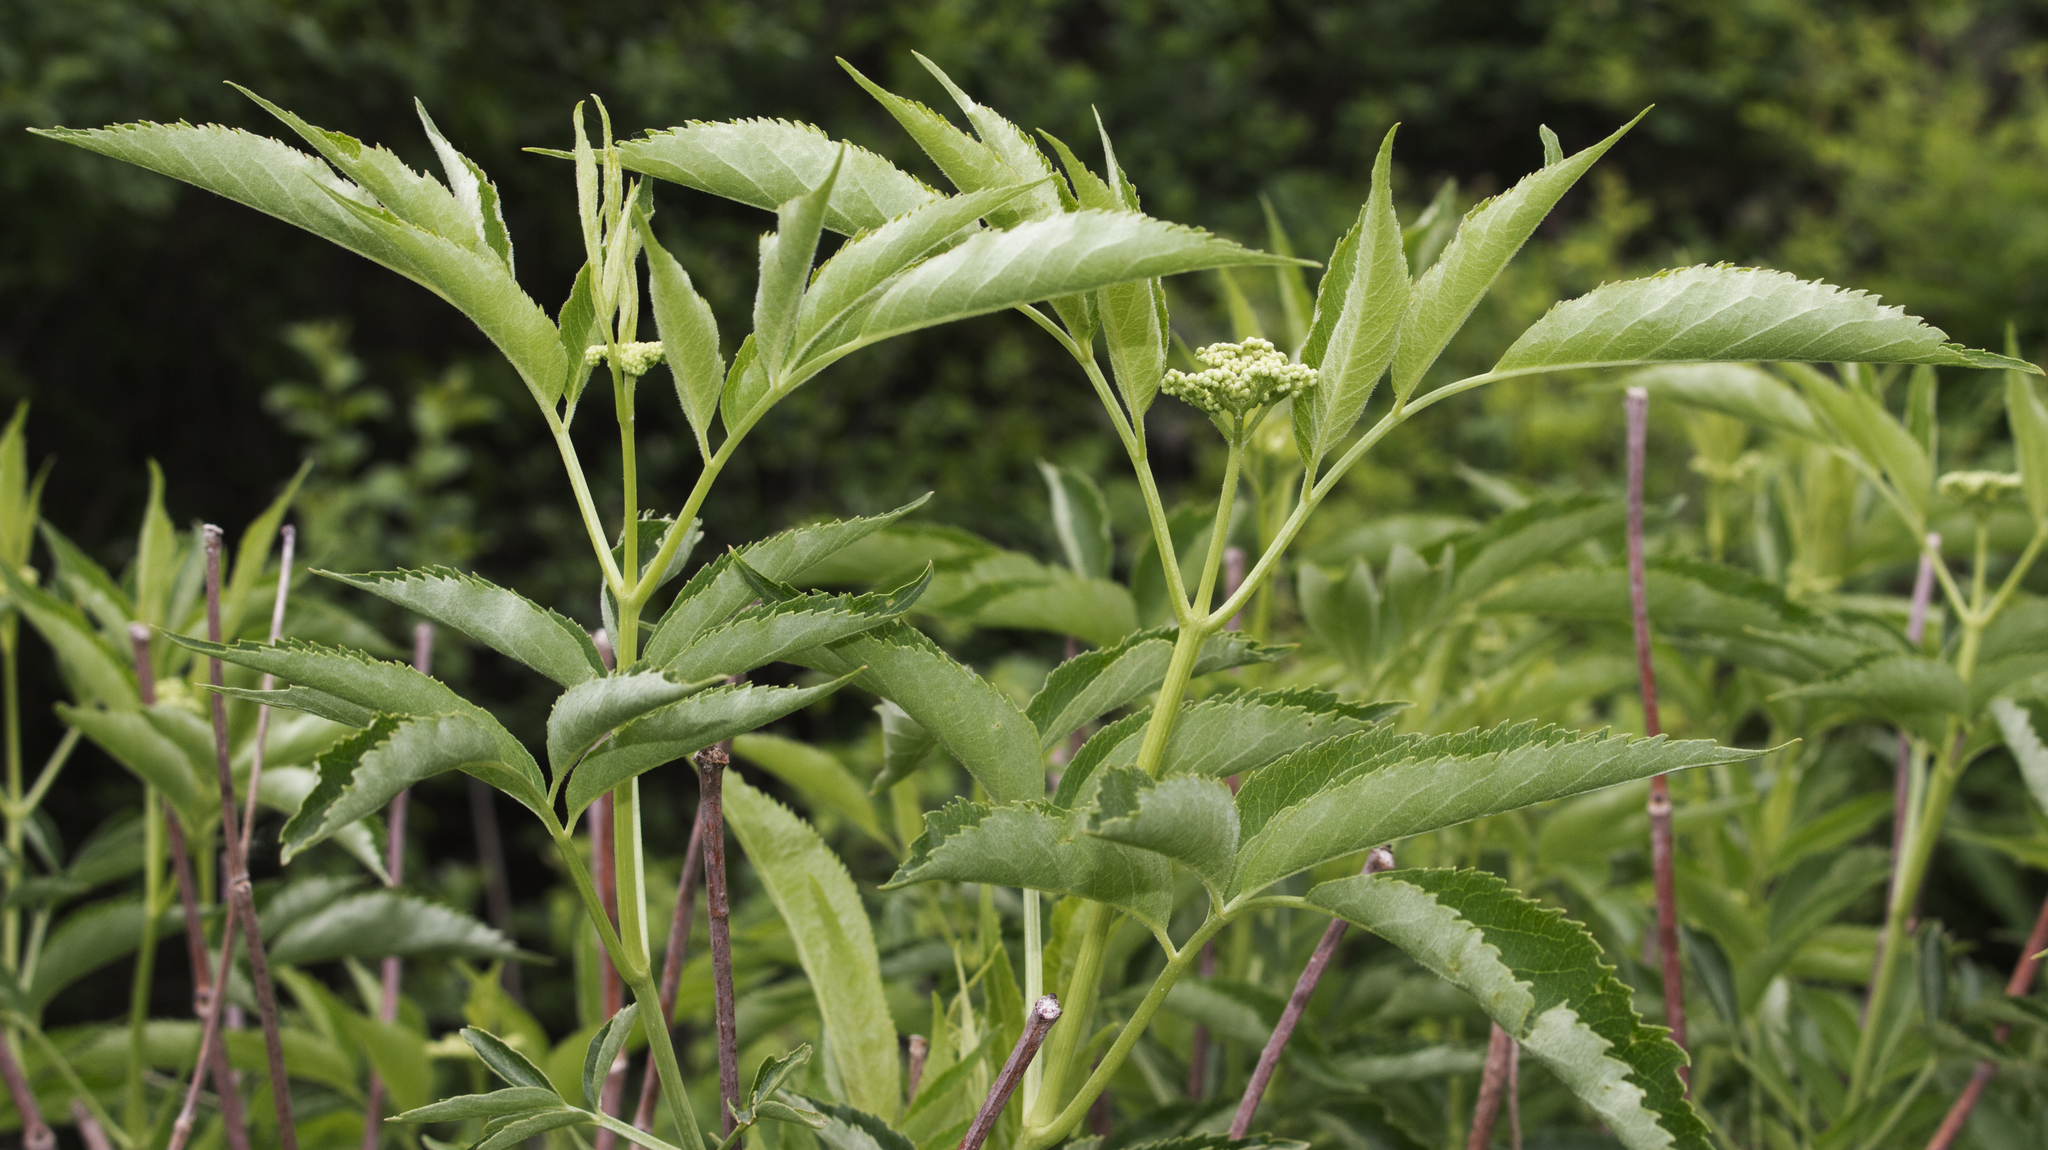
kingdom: Plantae
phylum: Tracheophyta
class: Magnoliopsida
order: Dipsacales
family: Viburnaceae
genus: Sambucus
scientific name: Sambucus canadensis
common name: American elder
